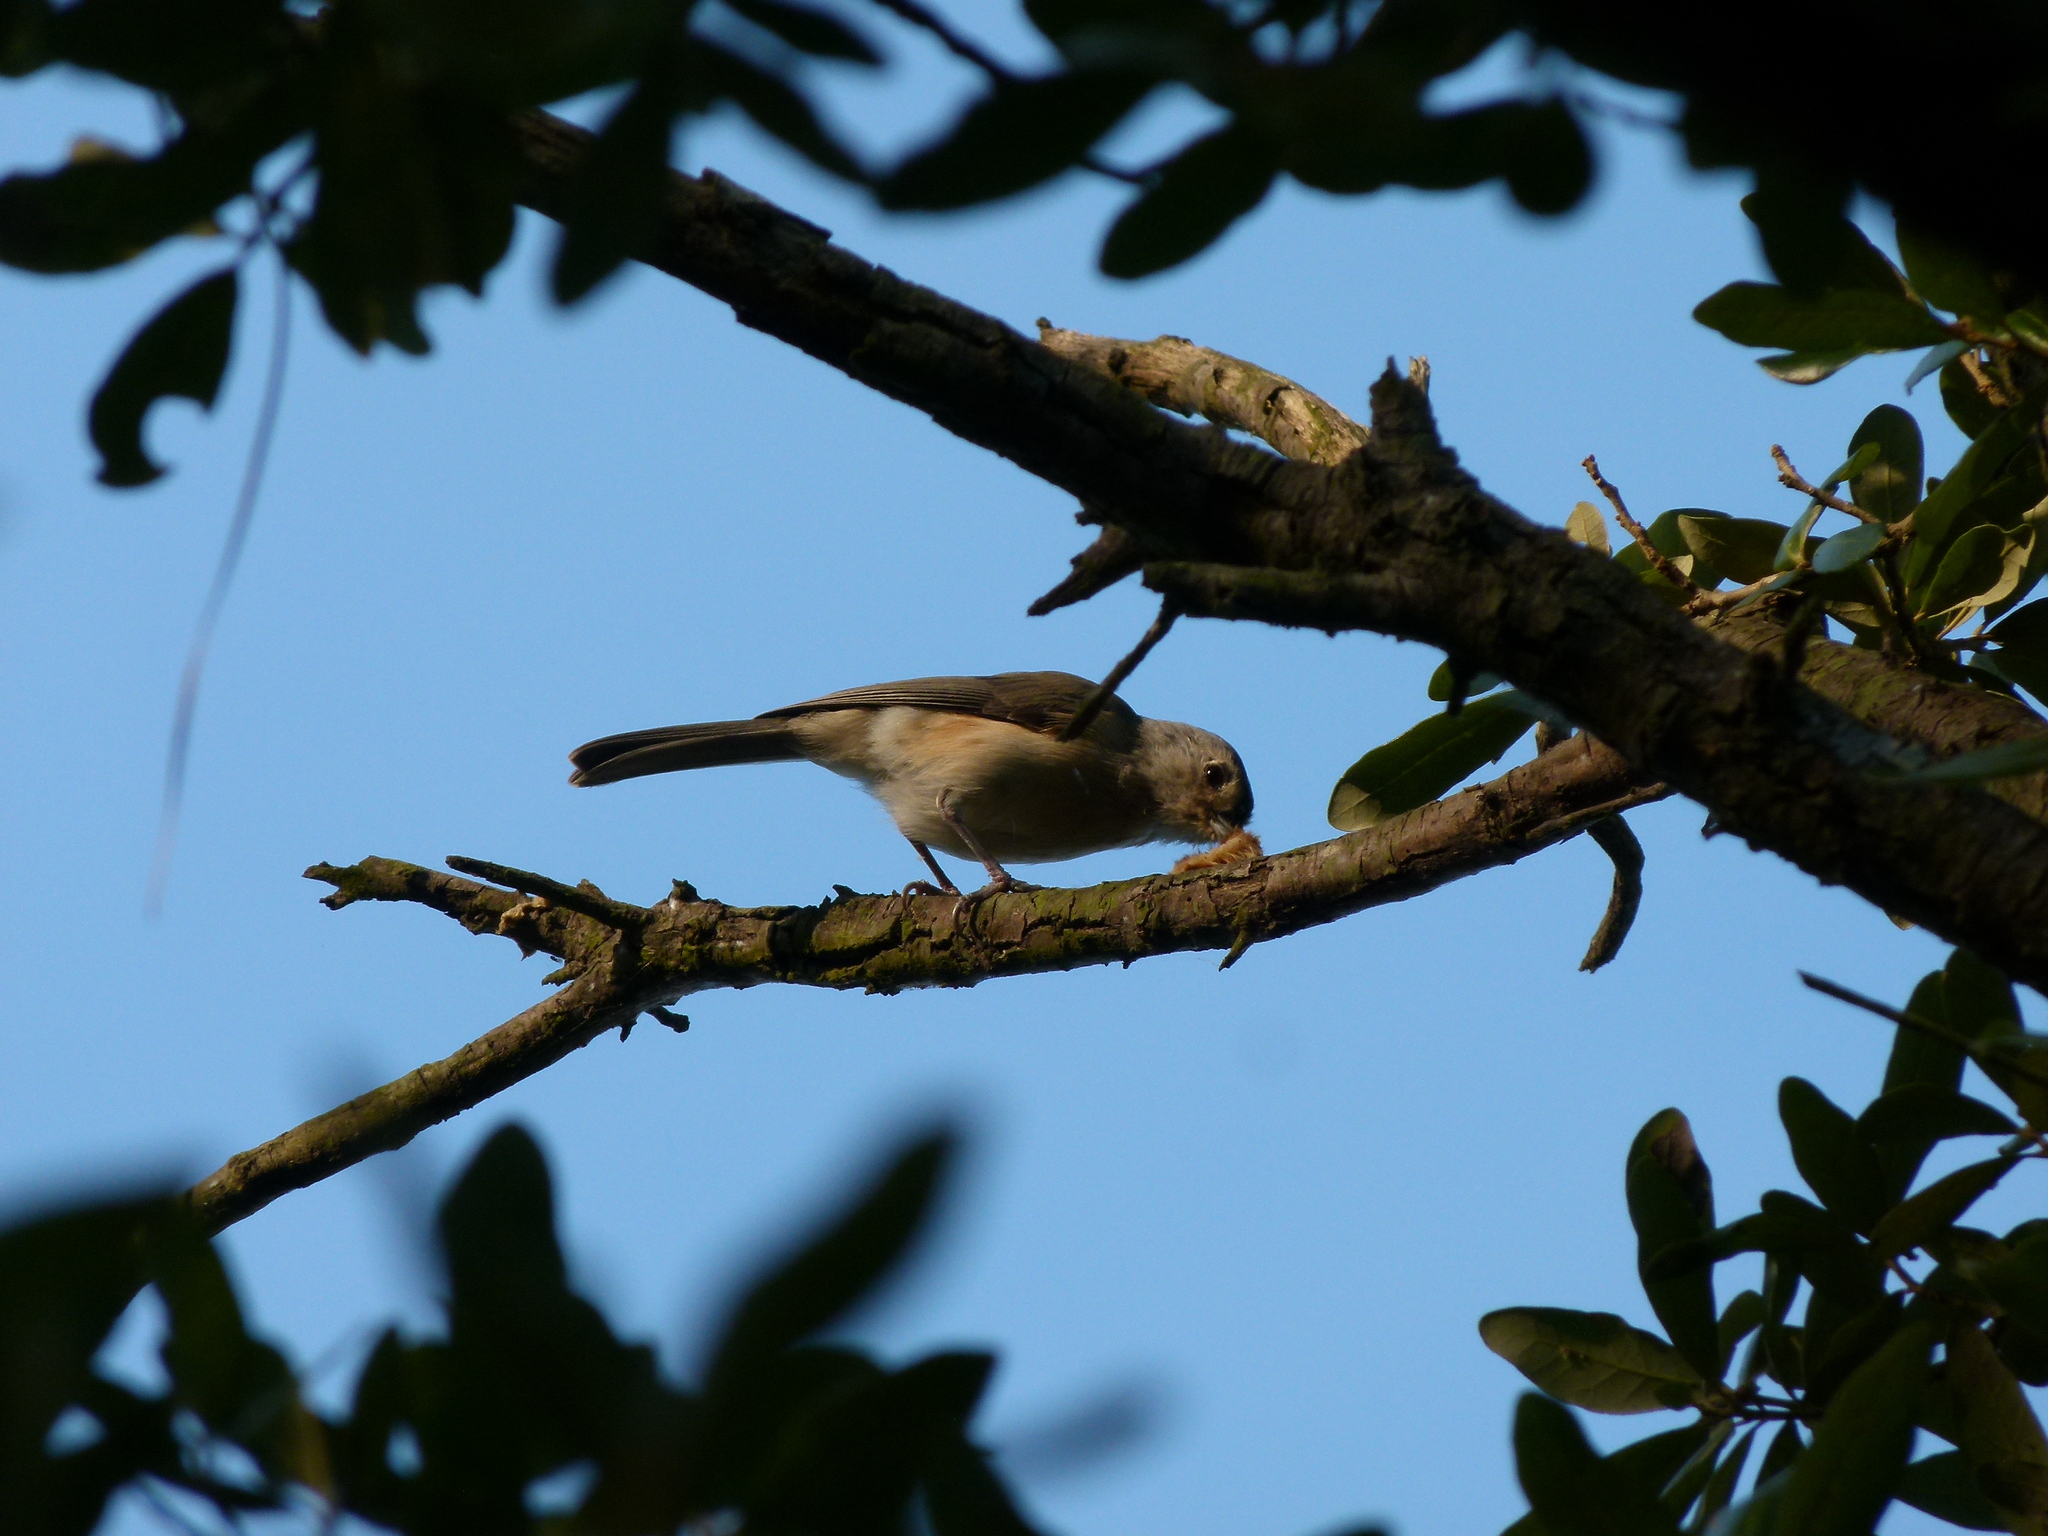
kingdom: Animalia
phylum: Chordata
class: Aves
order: Passeriformes
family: Paridae
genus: Baeolophus
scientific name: Baeolophus bicolor
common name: Tufted titmouse
